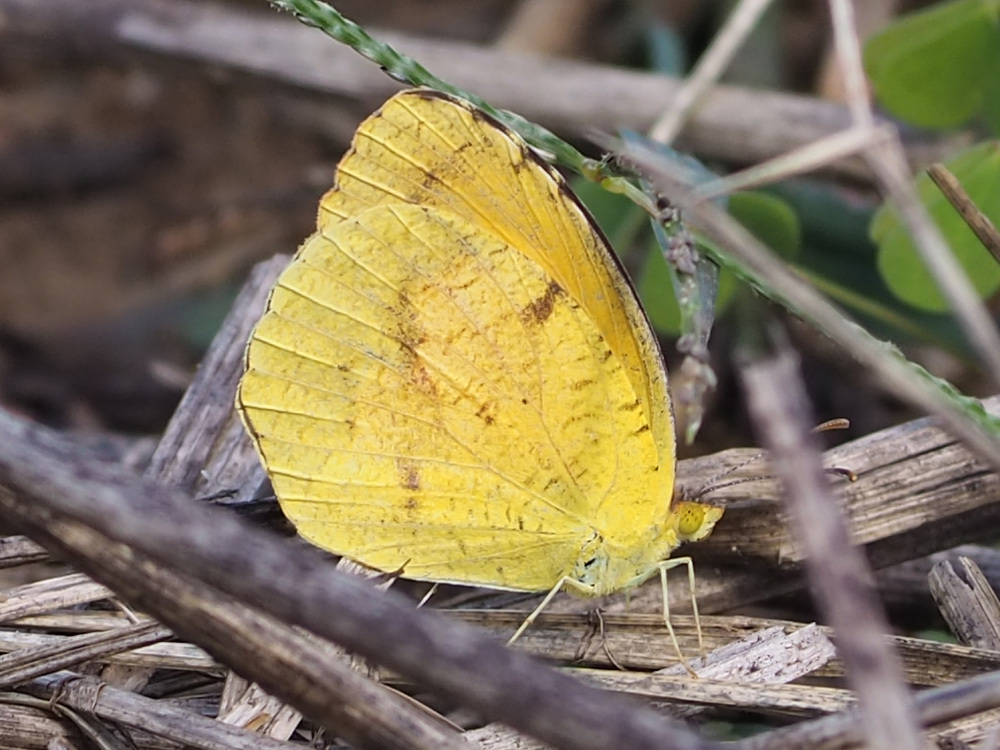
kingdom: Animalia
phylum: Arthropoda
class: Insecta
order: Lepidoptera
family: Pieridae
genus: Abaeis
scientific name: Abaeis nicippe
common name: Sleepy orange
